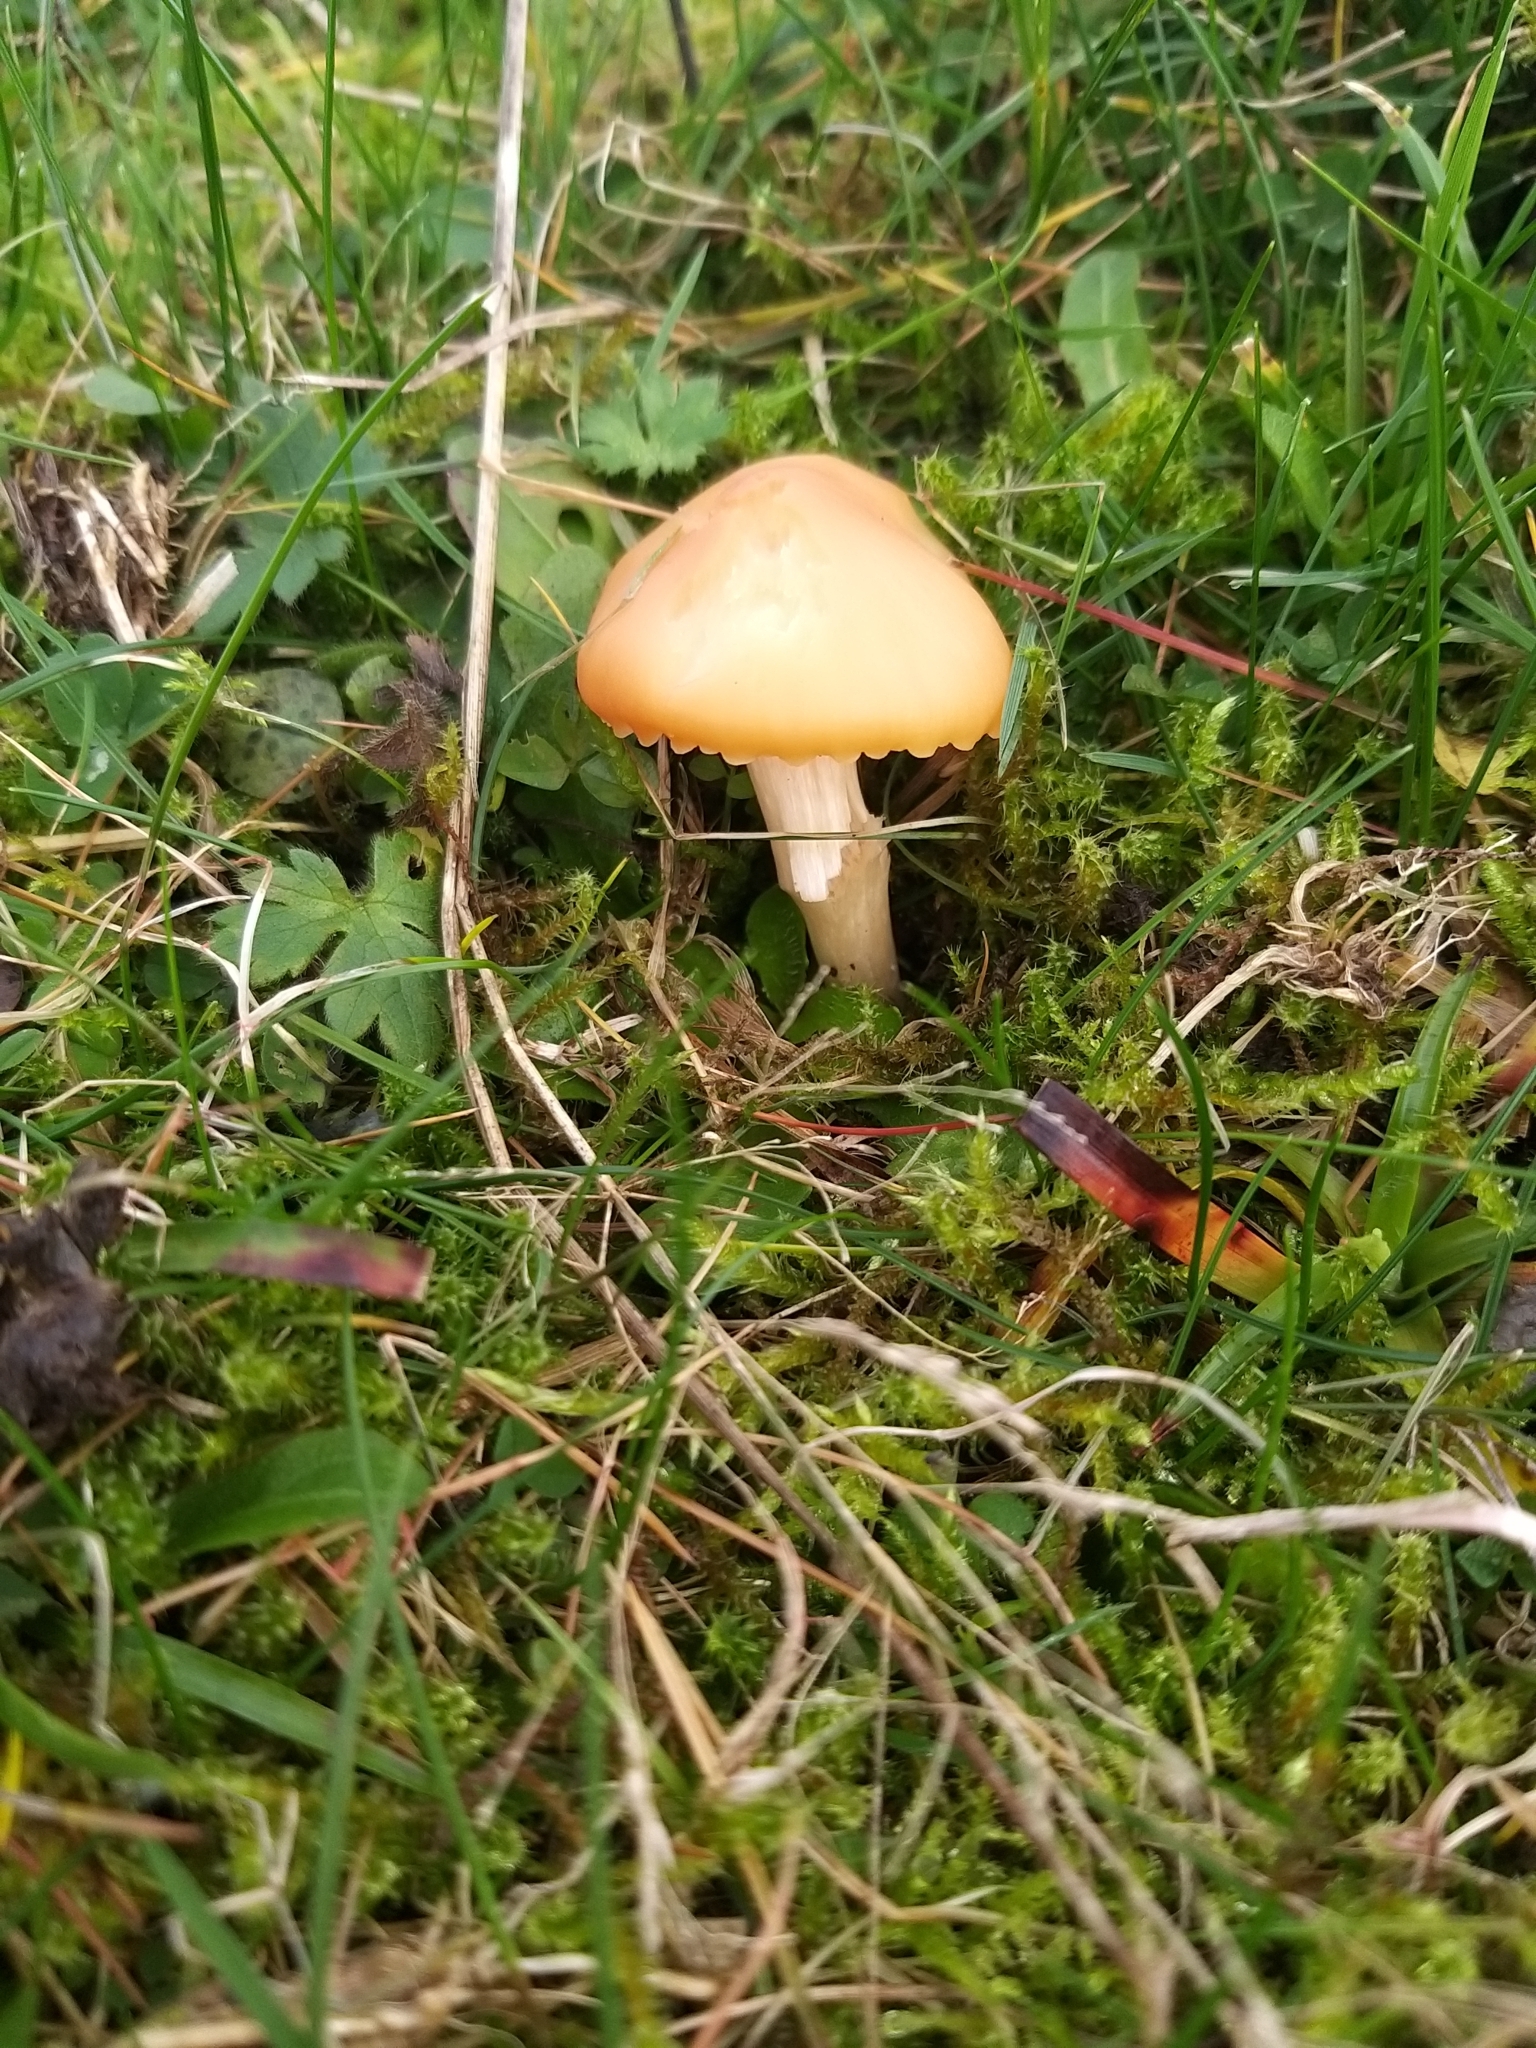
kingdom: Fungi
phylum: Basidiomycota
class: Agaricomycetes
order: Agaricales
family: Hygrophoraceae
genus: Cuphophyllus
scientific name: Cuphophyllus pratensis
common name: Meadow waxcap
